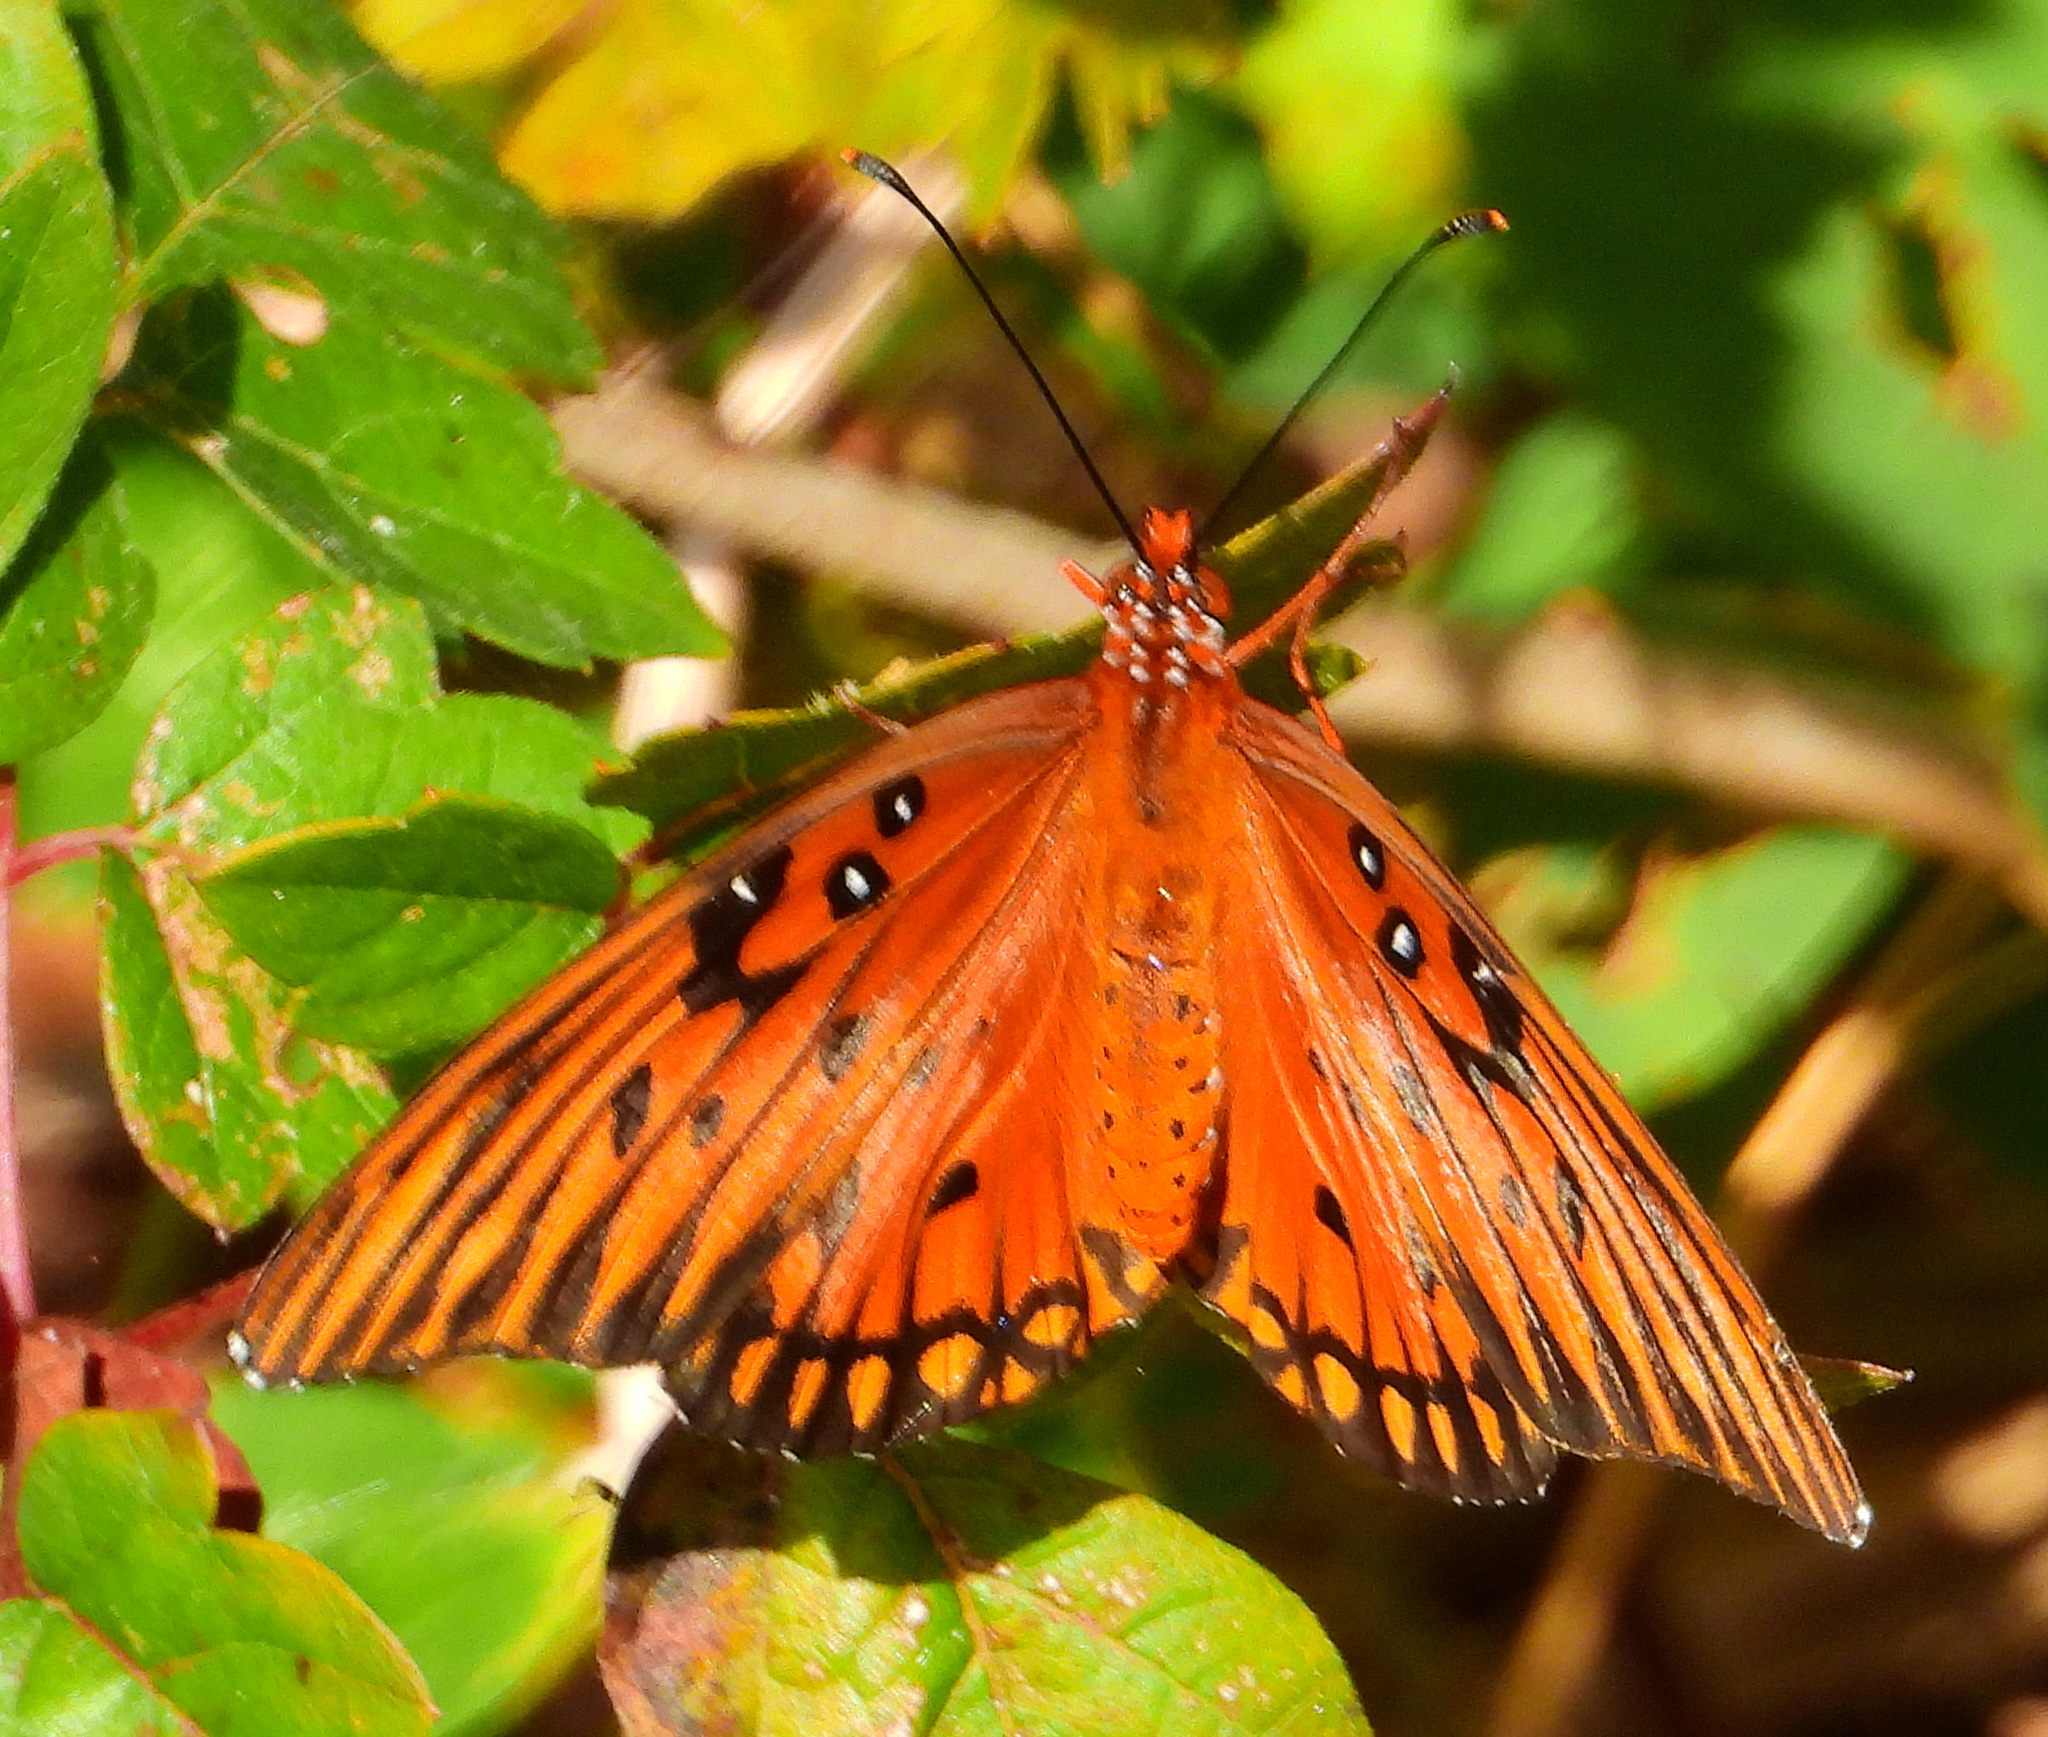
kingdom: Animalia
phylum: Arthropoda
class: Insecta
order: Lepidoptera
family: Nymphalidae
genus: Dione
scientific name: Dione vanillae
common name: Gulf fritillary
